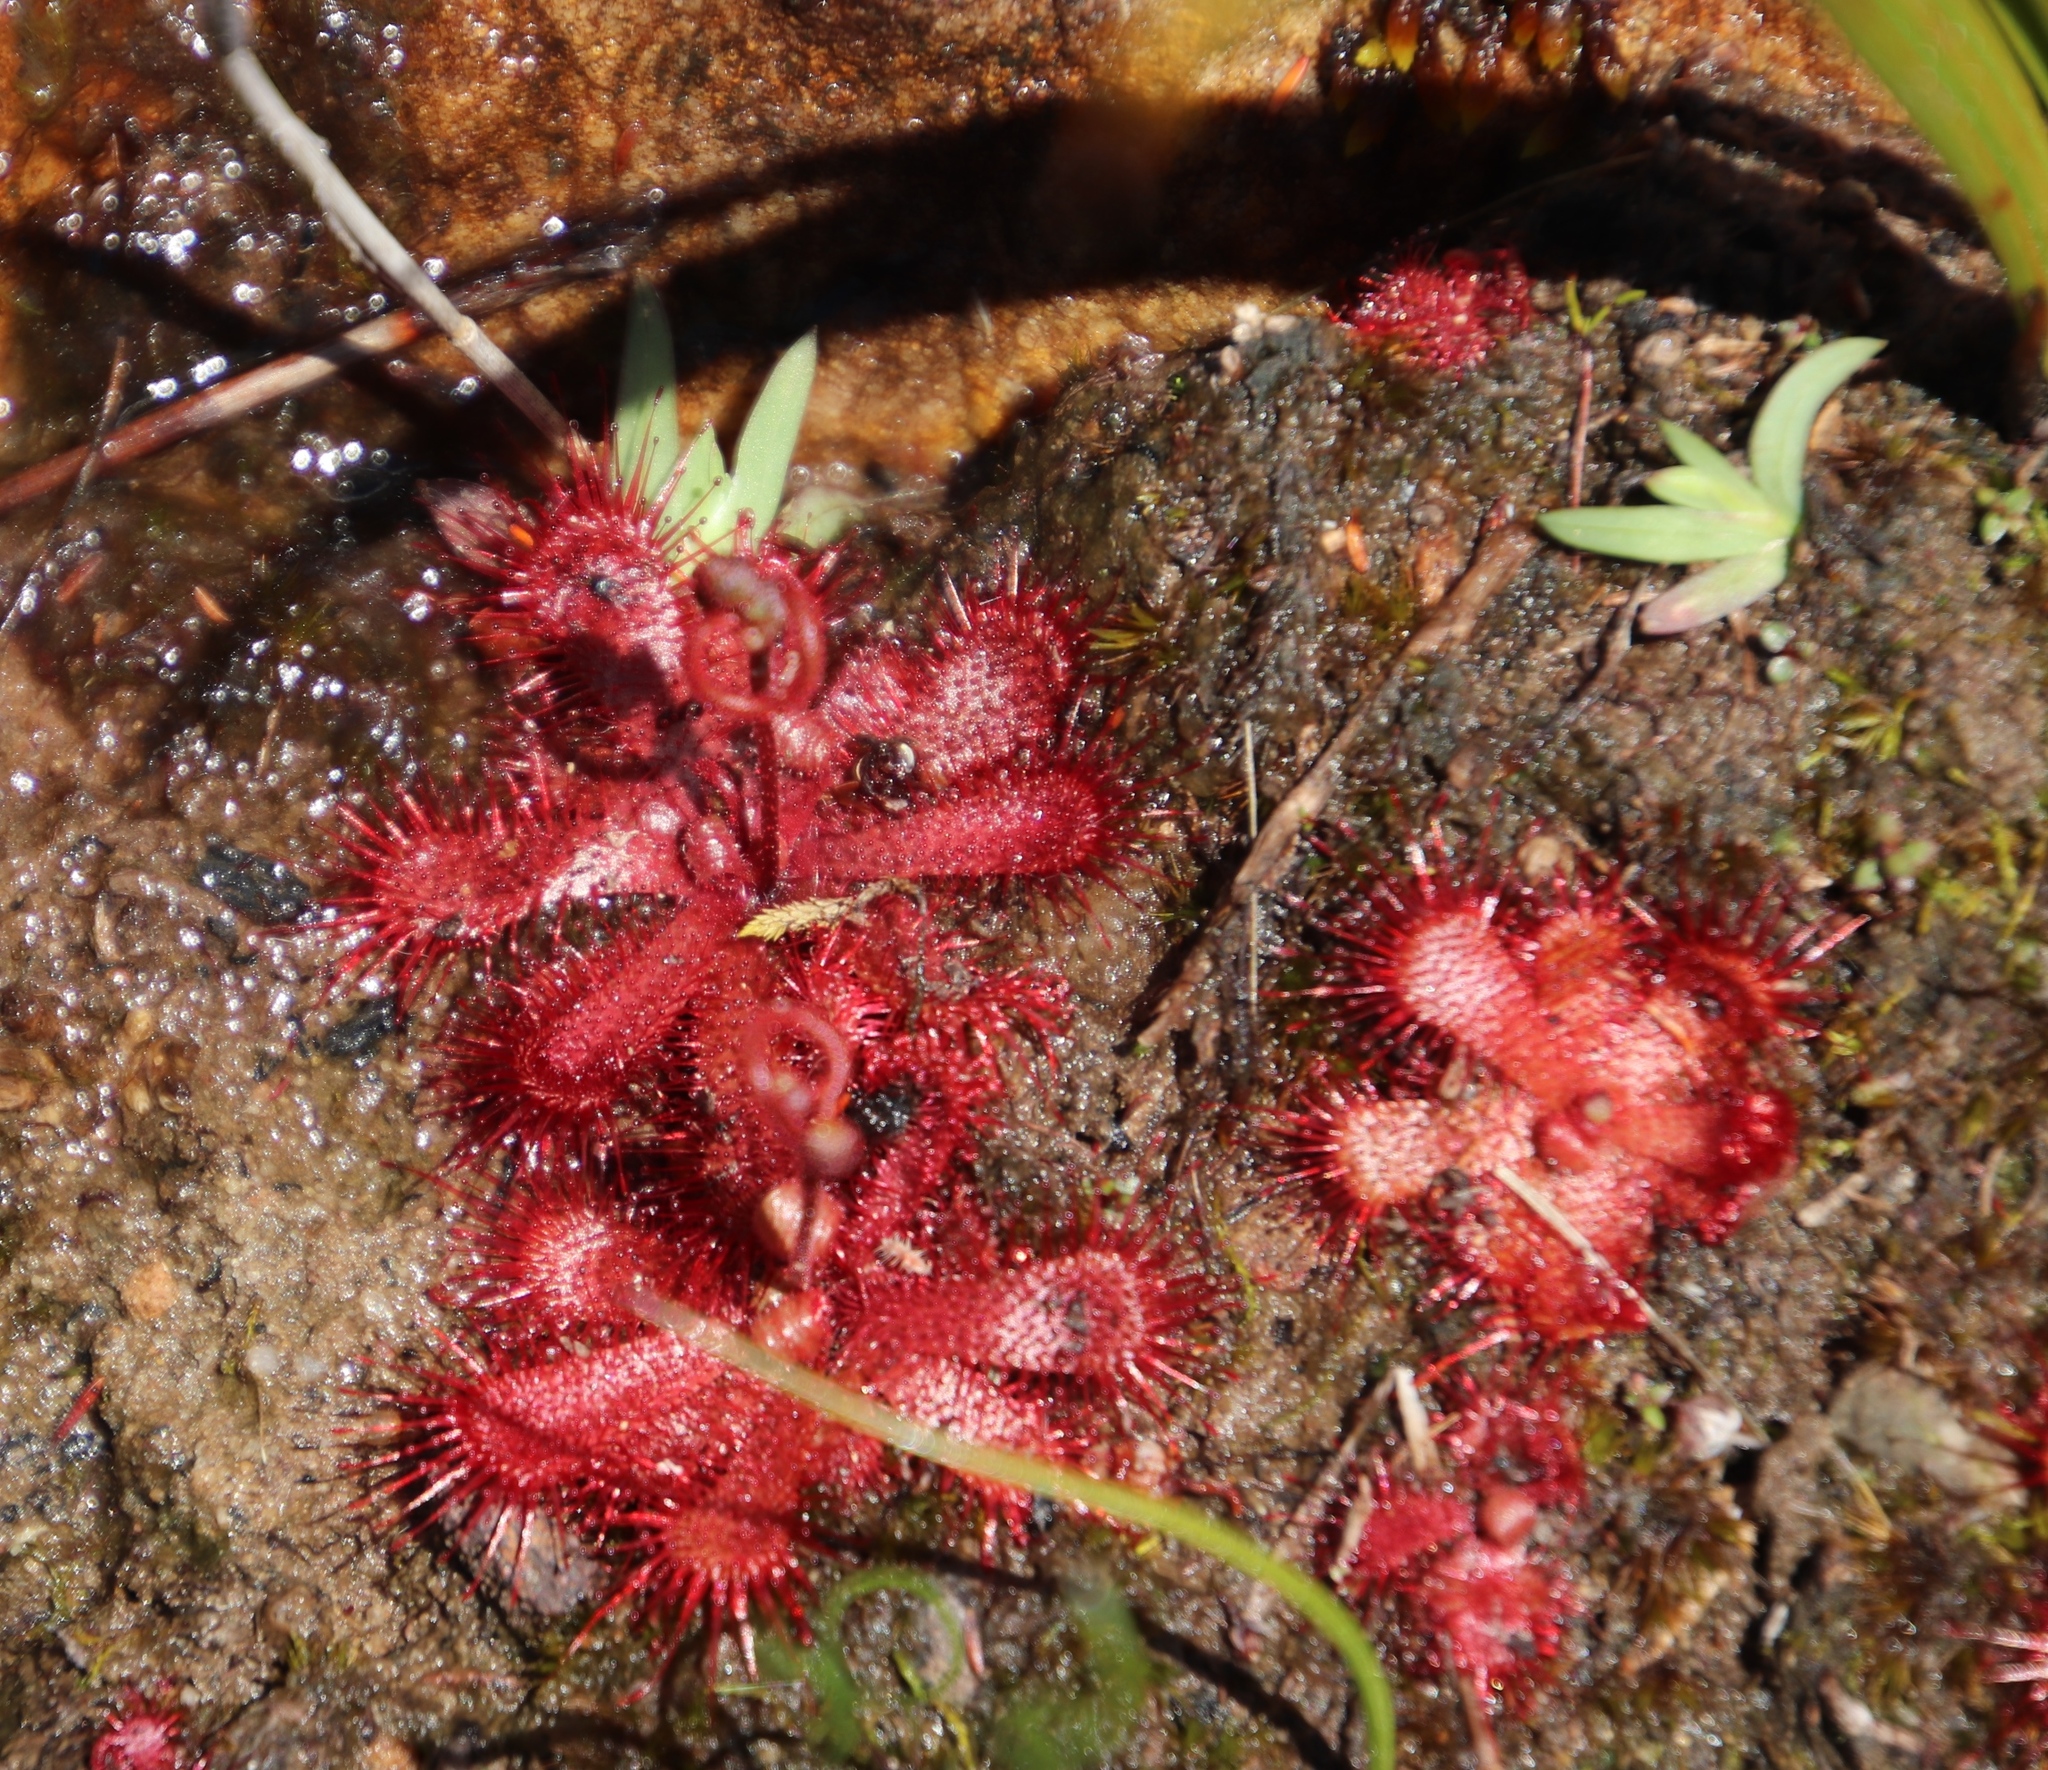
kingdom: Plantae
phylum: Tracheophyta
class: Magnoliopsida
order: Caryophyllales
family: Droseraceae
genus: Drosera
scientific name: Drosera trinervia
